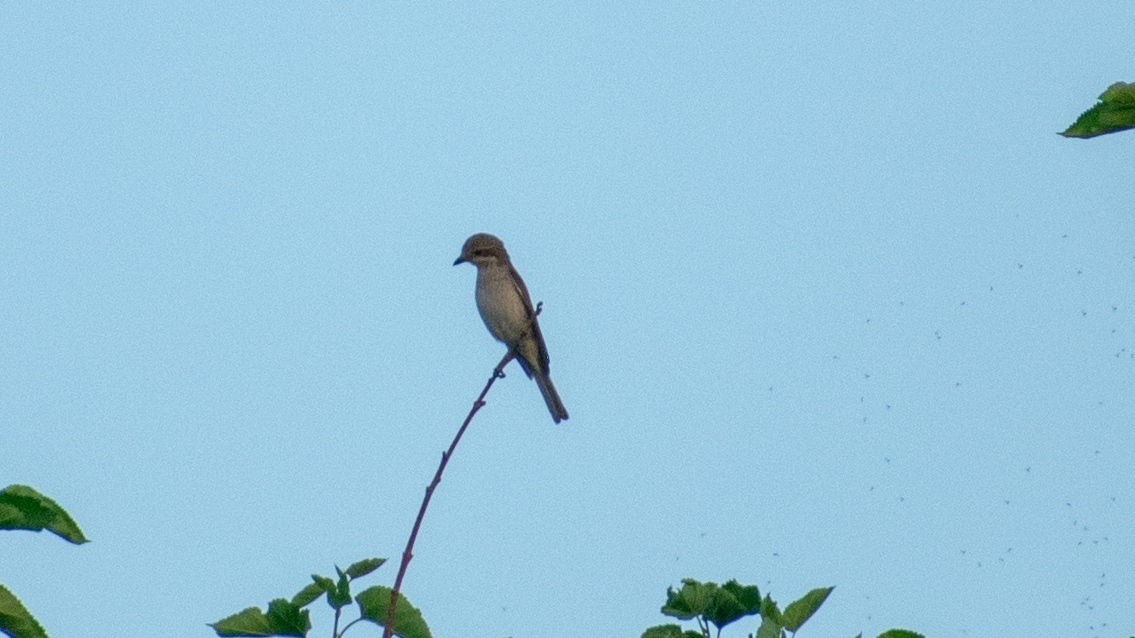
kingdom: Animalia
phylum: Chordata
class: Aves
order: Passeriformes
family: Laniidae
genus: Lanius
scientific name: Lanius collurio
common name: Red-backed shrike
